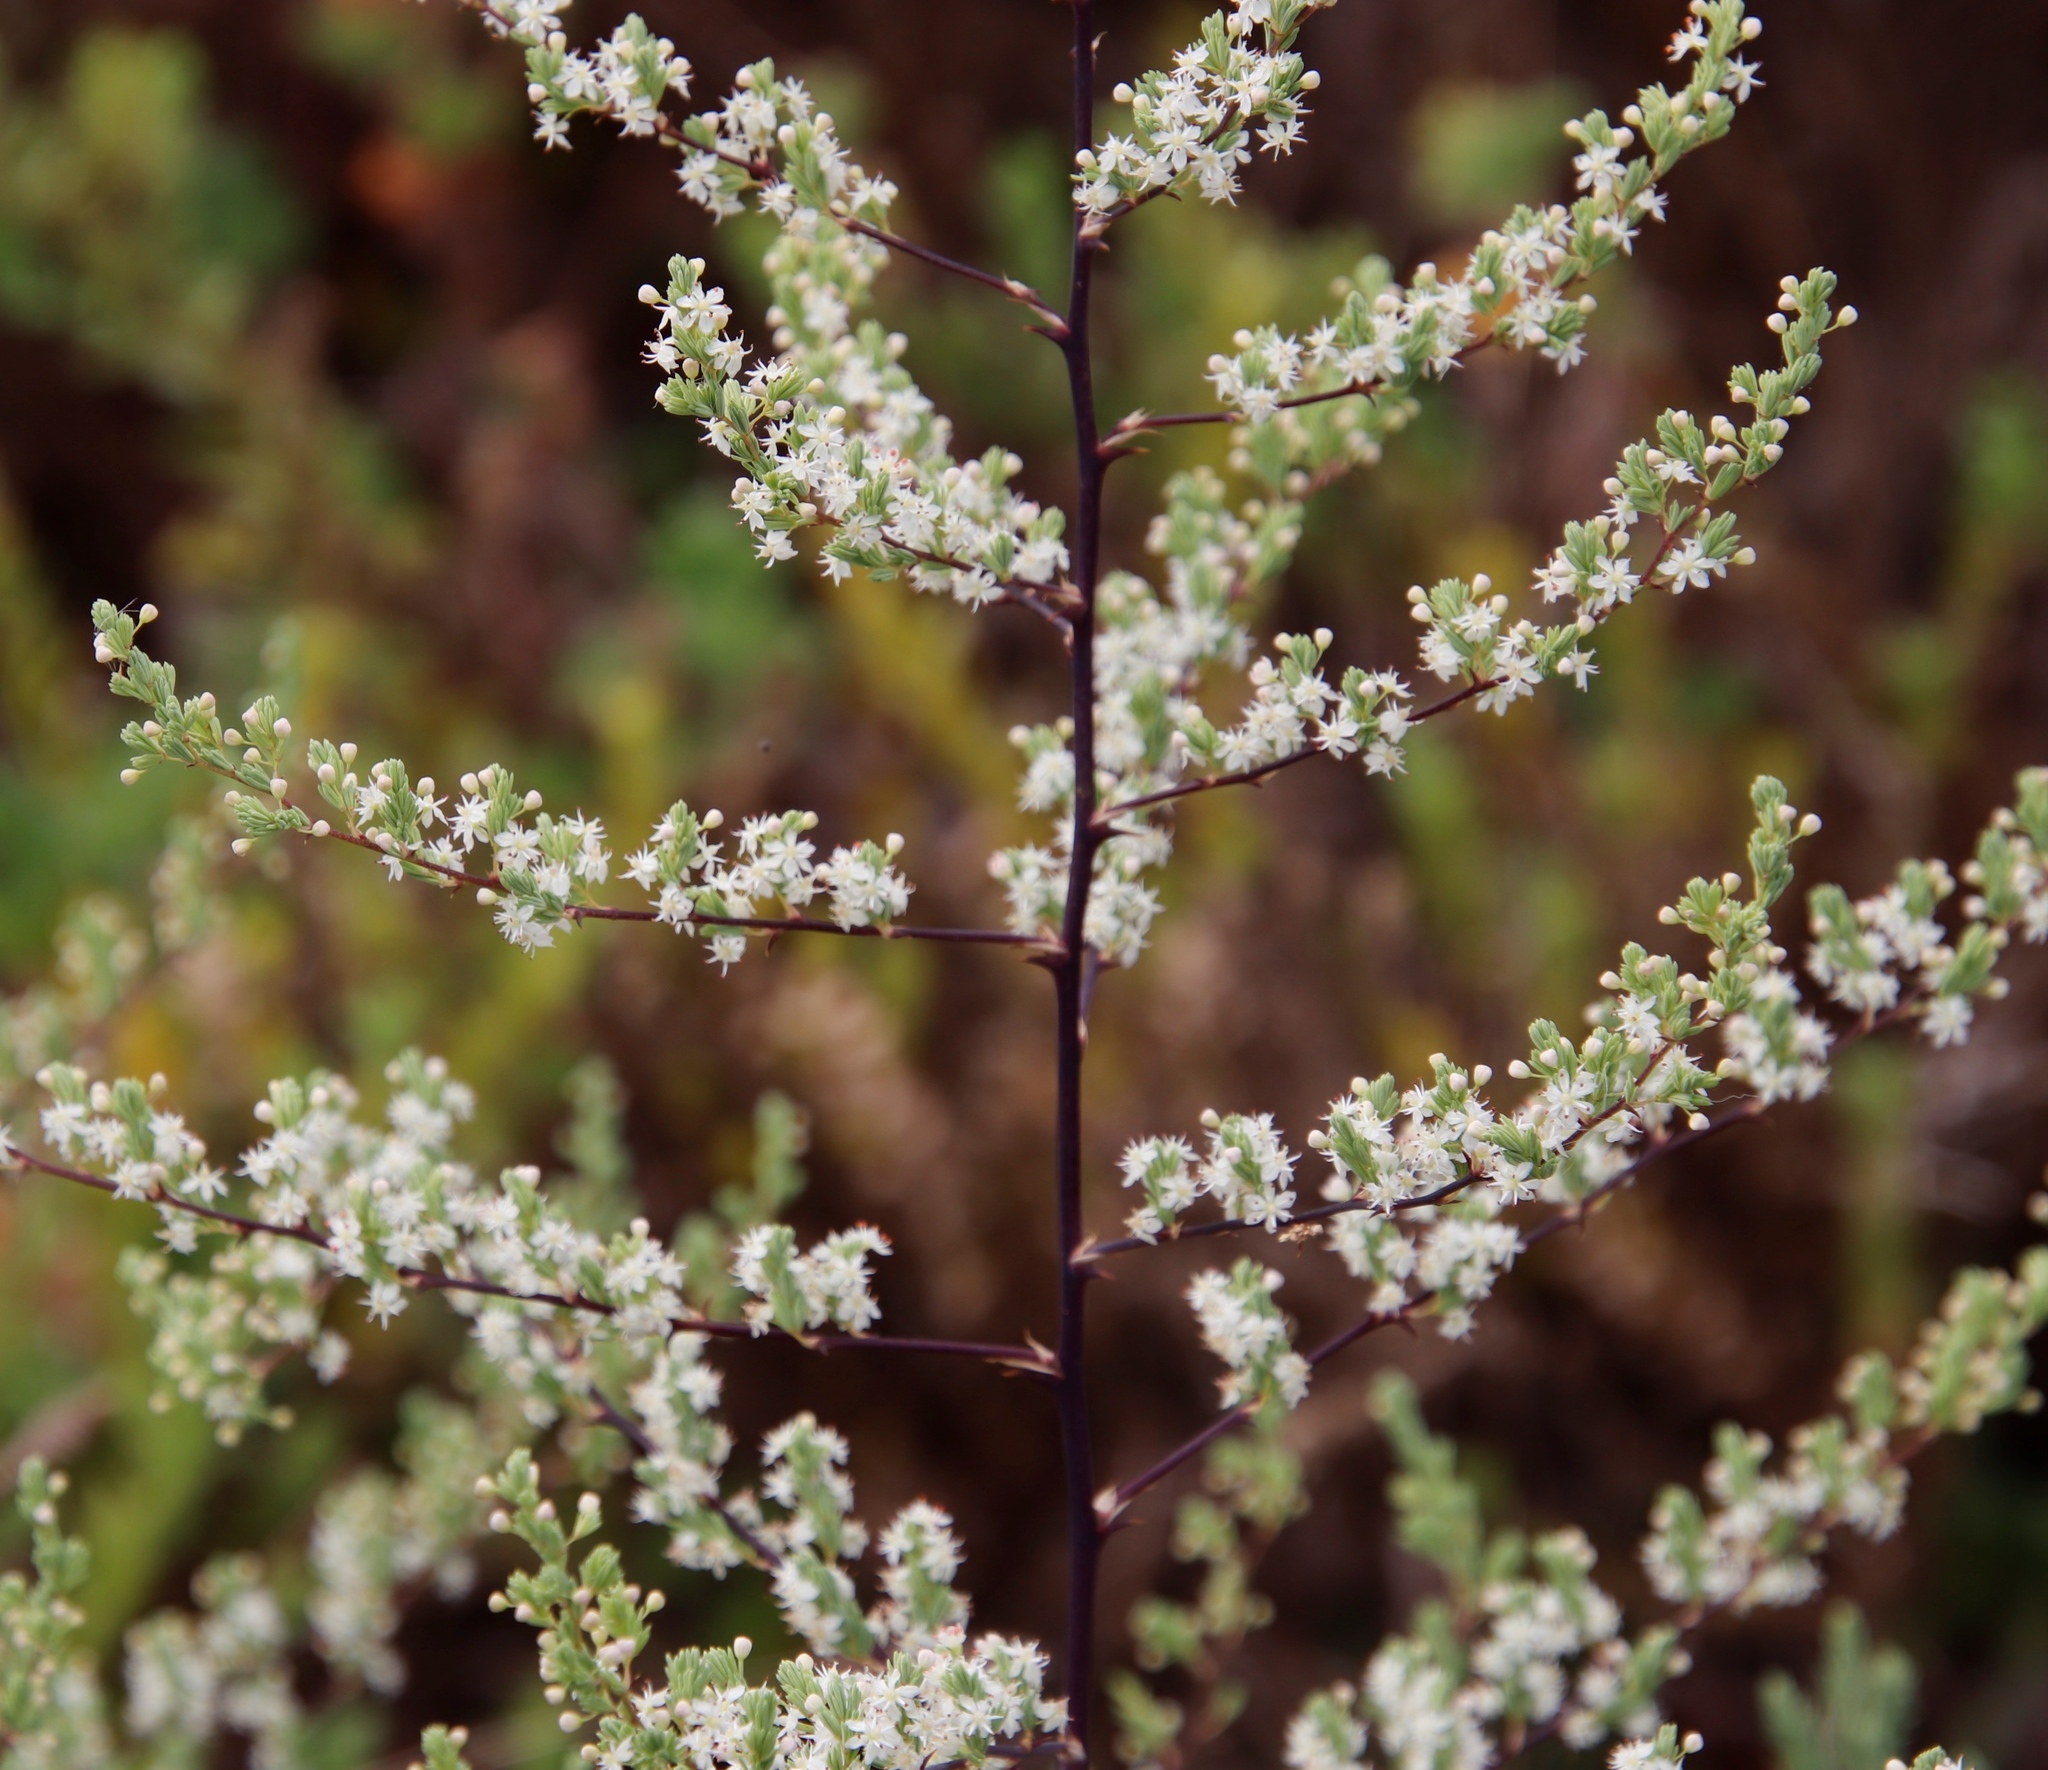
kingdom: Plantae
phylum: Tracheophyta
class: Liliopsida
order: Asparagales
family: Asparagaceae
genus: Asparagus
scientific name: Asparagus rubicundus
